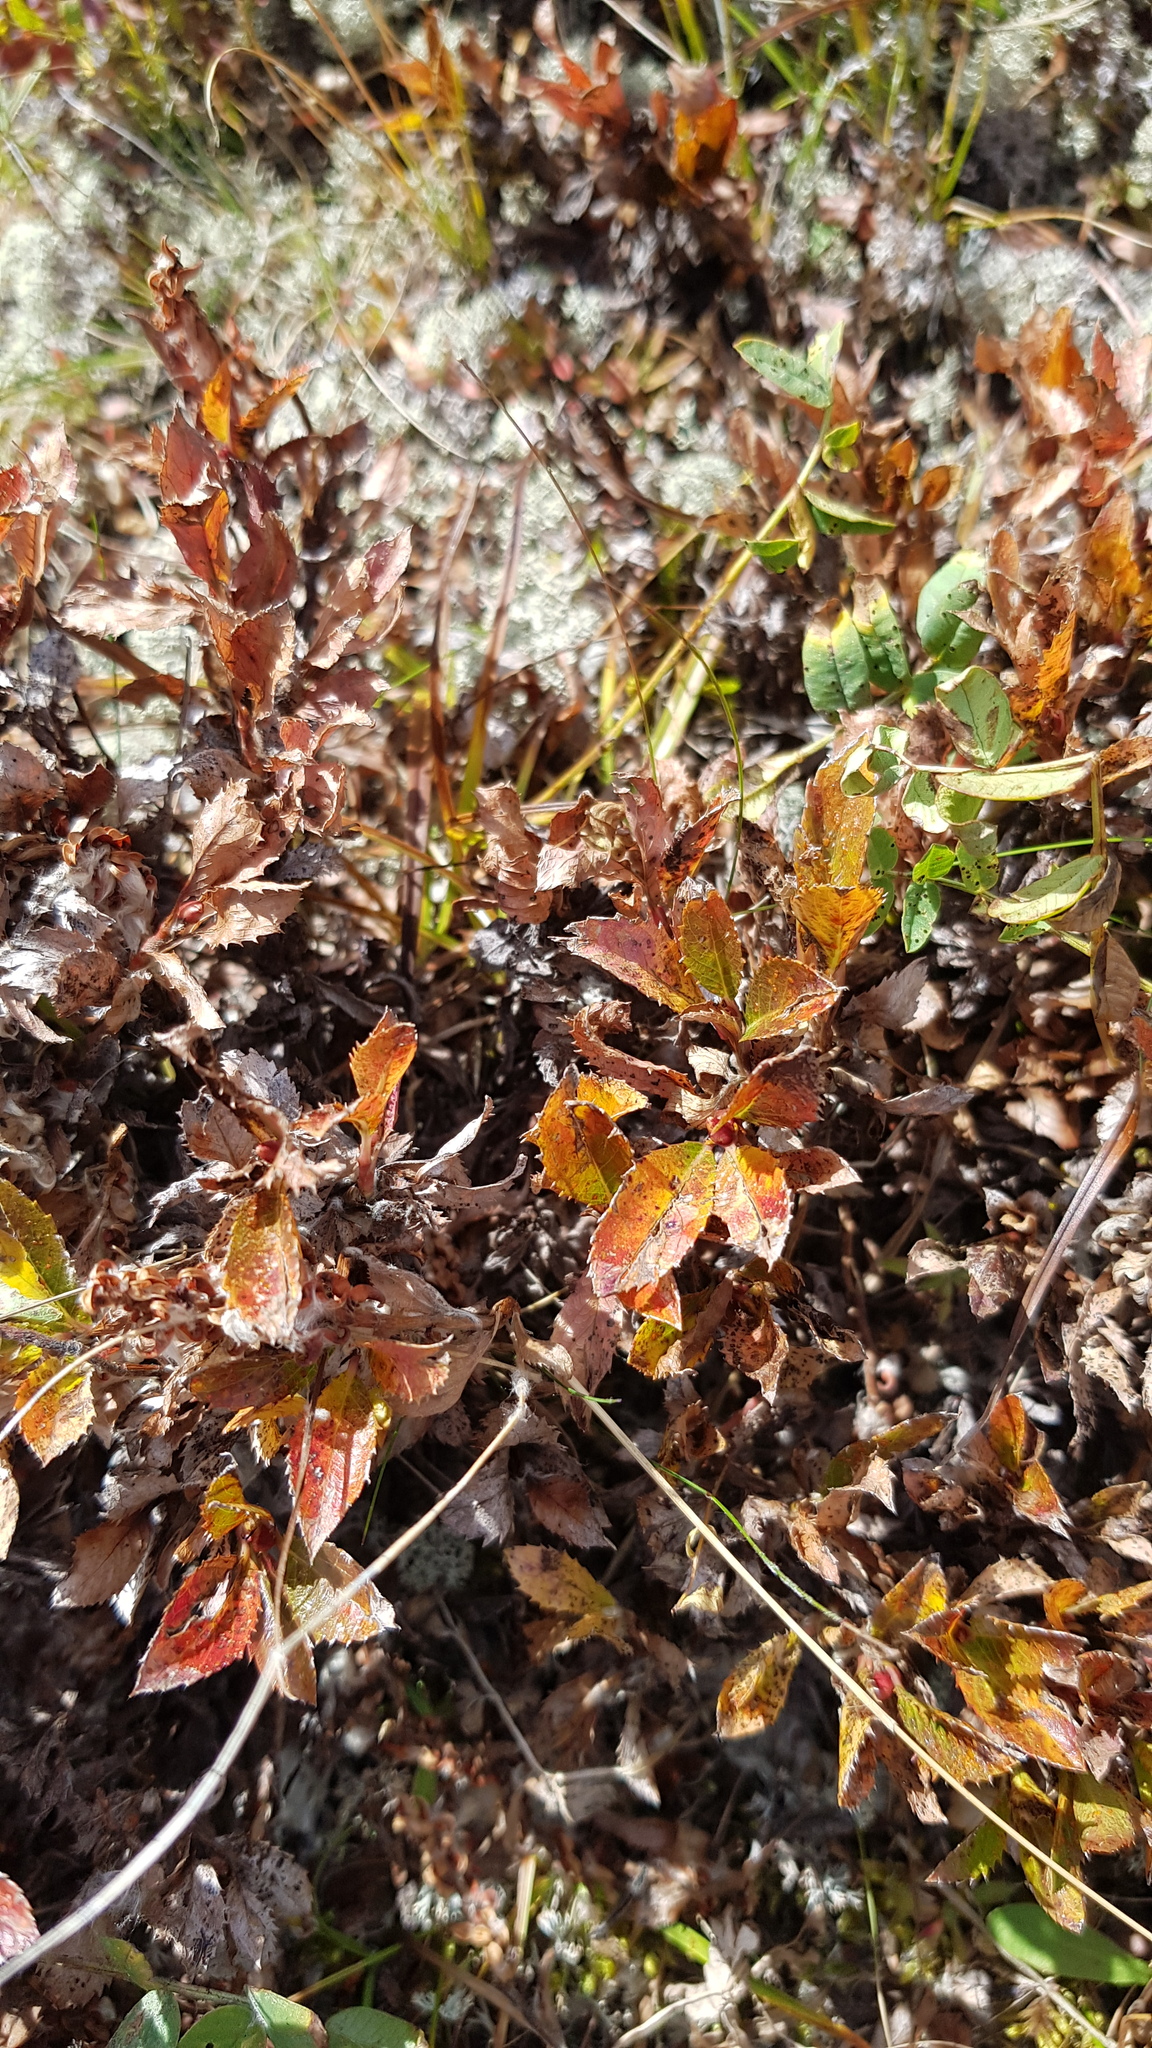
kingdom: Plantae
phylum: Tracheophyta
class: Magnoliopsida
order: Fagales
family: Betulaceae
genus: Betula
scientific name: Betula fruticosa
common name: Japanese bog birch
